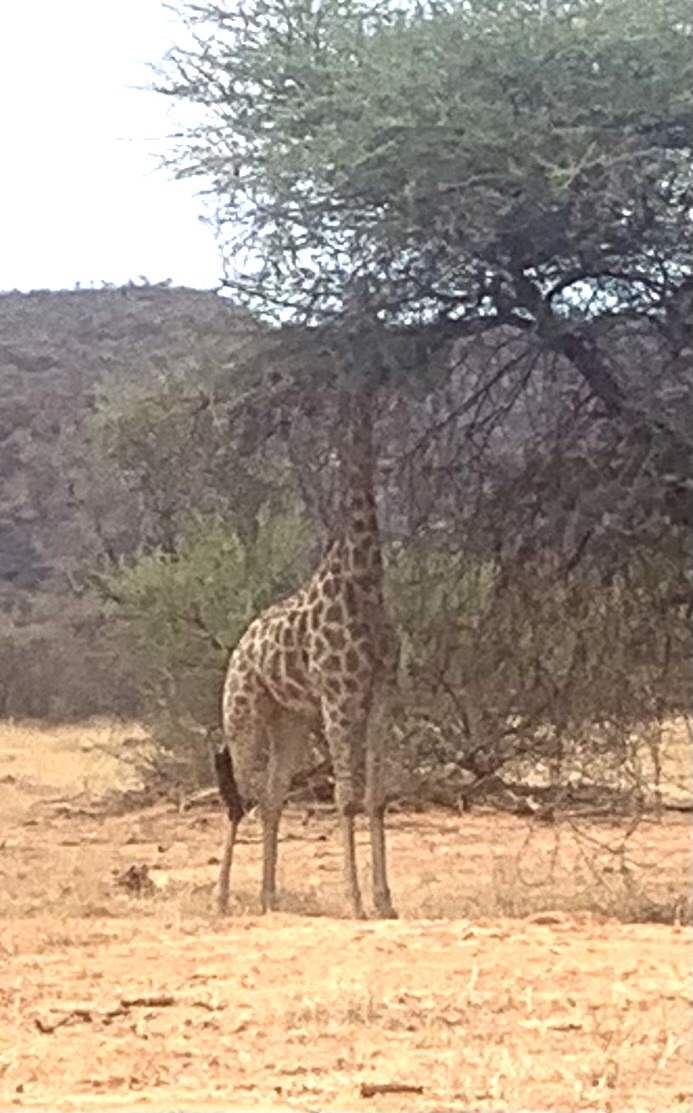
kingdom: Animalia
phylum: Chordata
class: Mammalia
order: Artiodactyla
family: Giraffidae
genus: Giraffa
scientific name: Giraffa giraffa
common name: Southern giraffe
